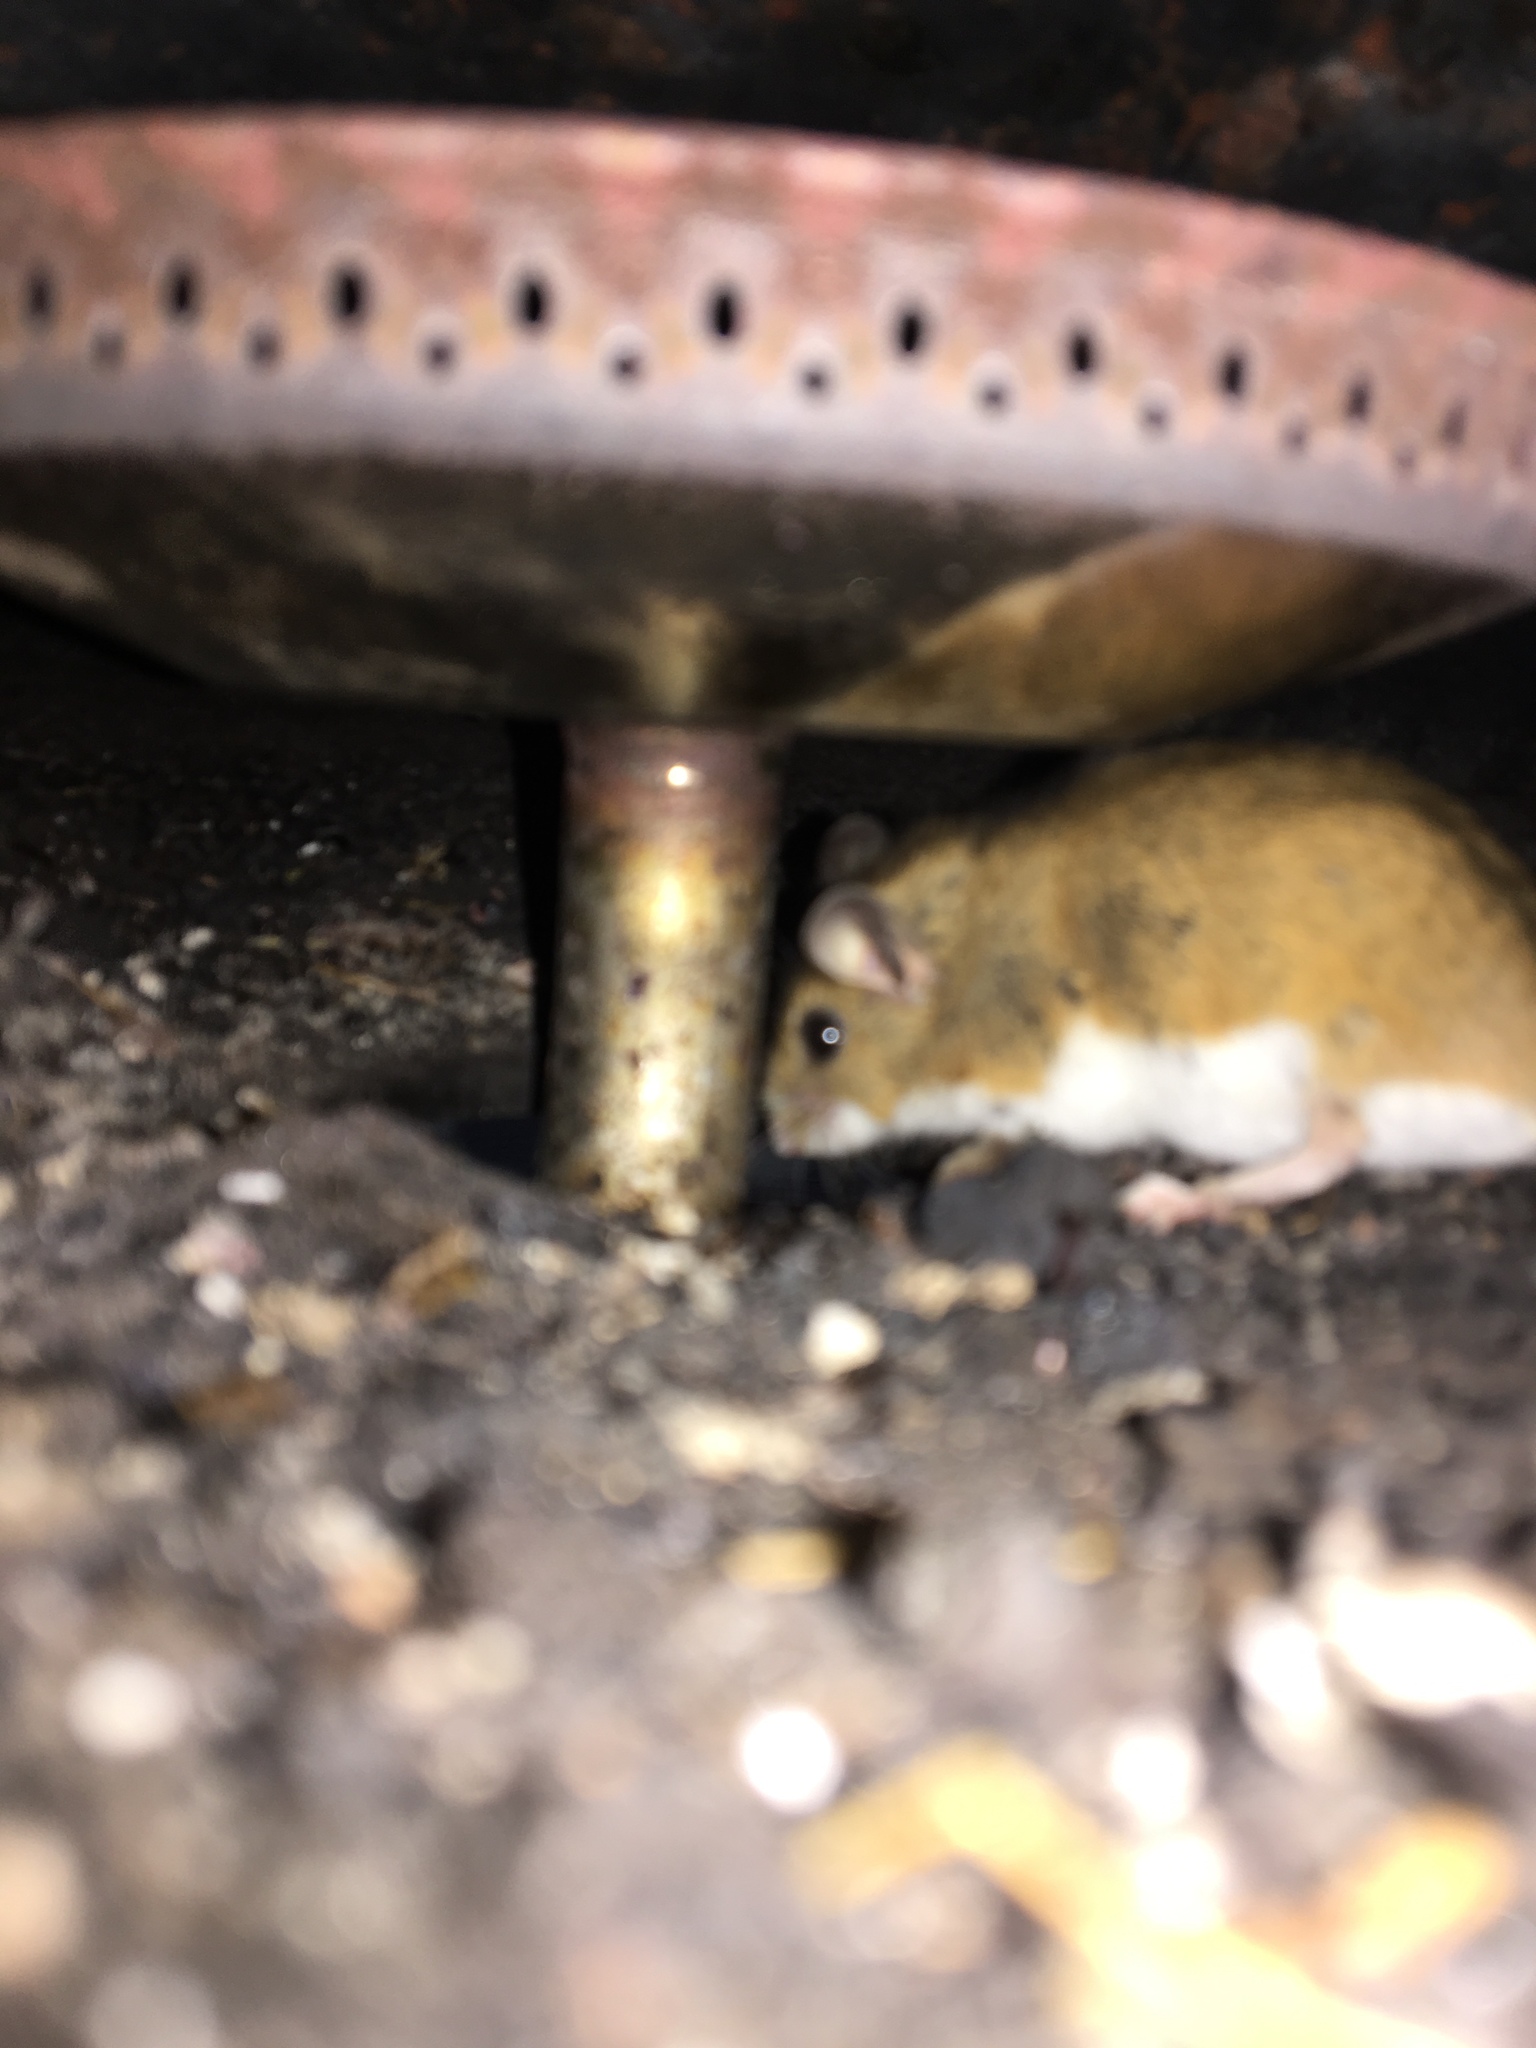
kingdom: Animalia
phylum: Chordata
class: Mammalia
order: Rodentia
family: Cricetidae
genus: Peromyscus
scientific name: Peromyscus leucopus
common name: White-footed deermouse
